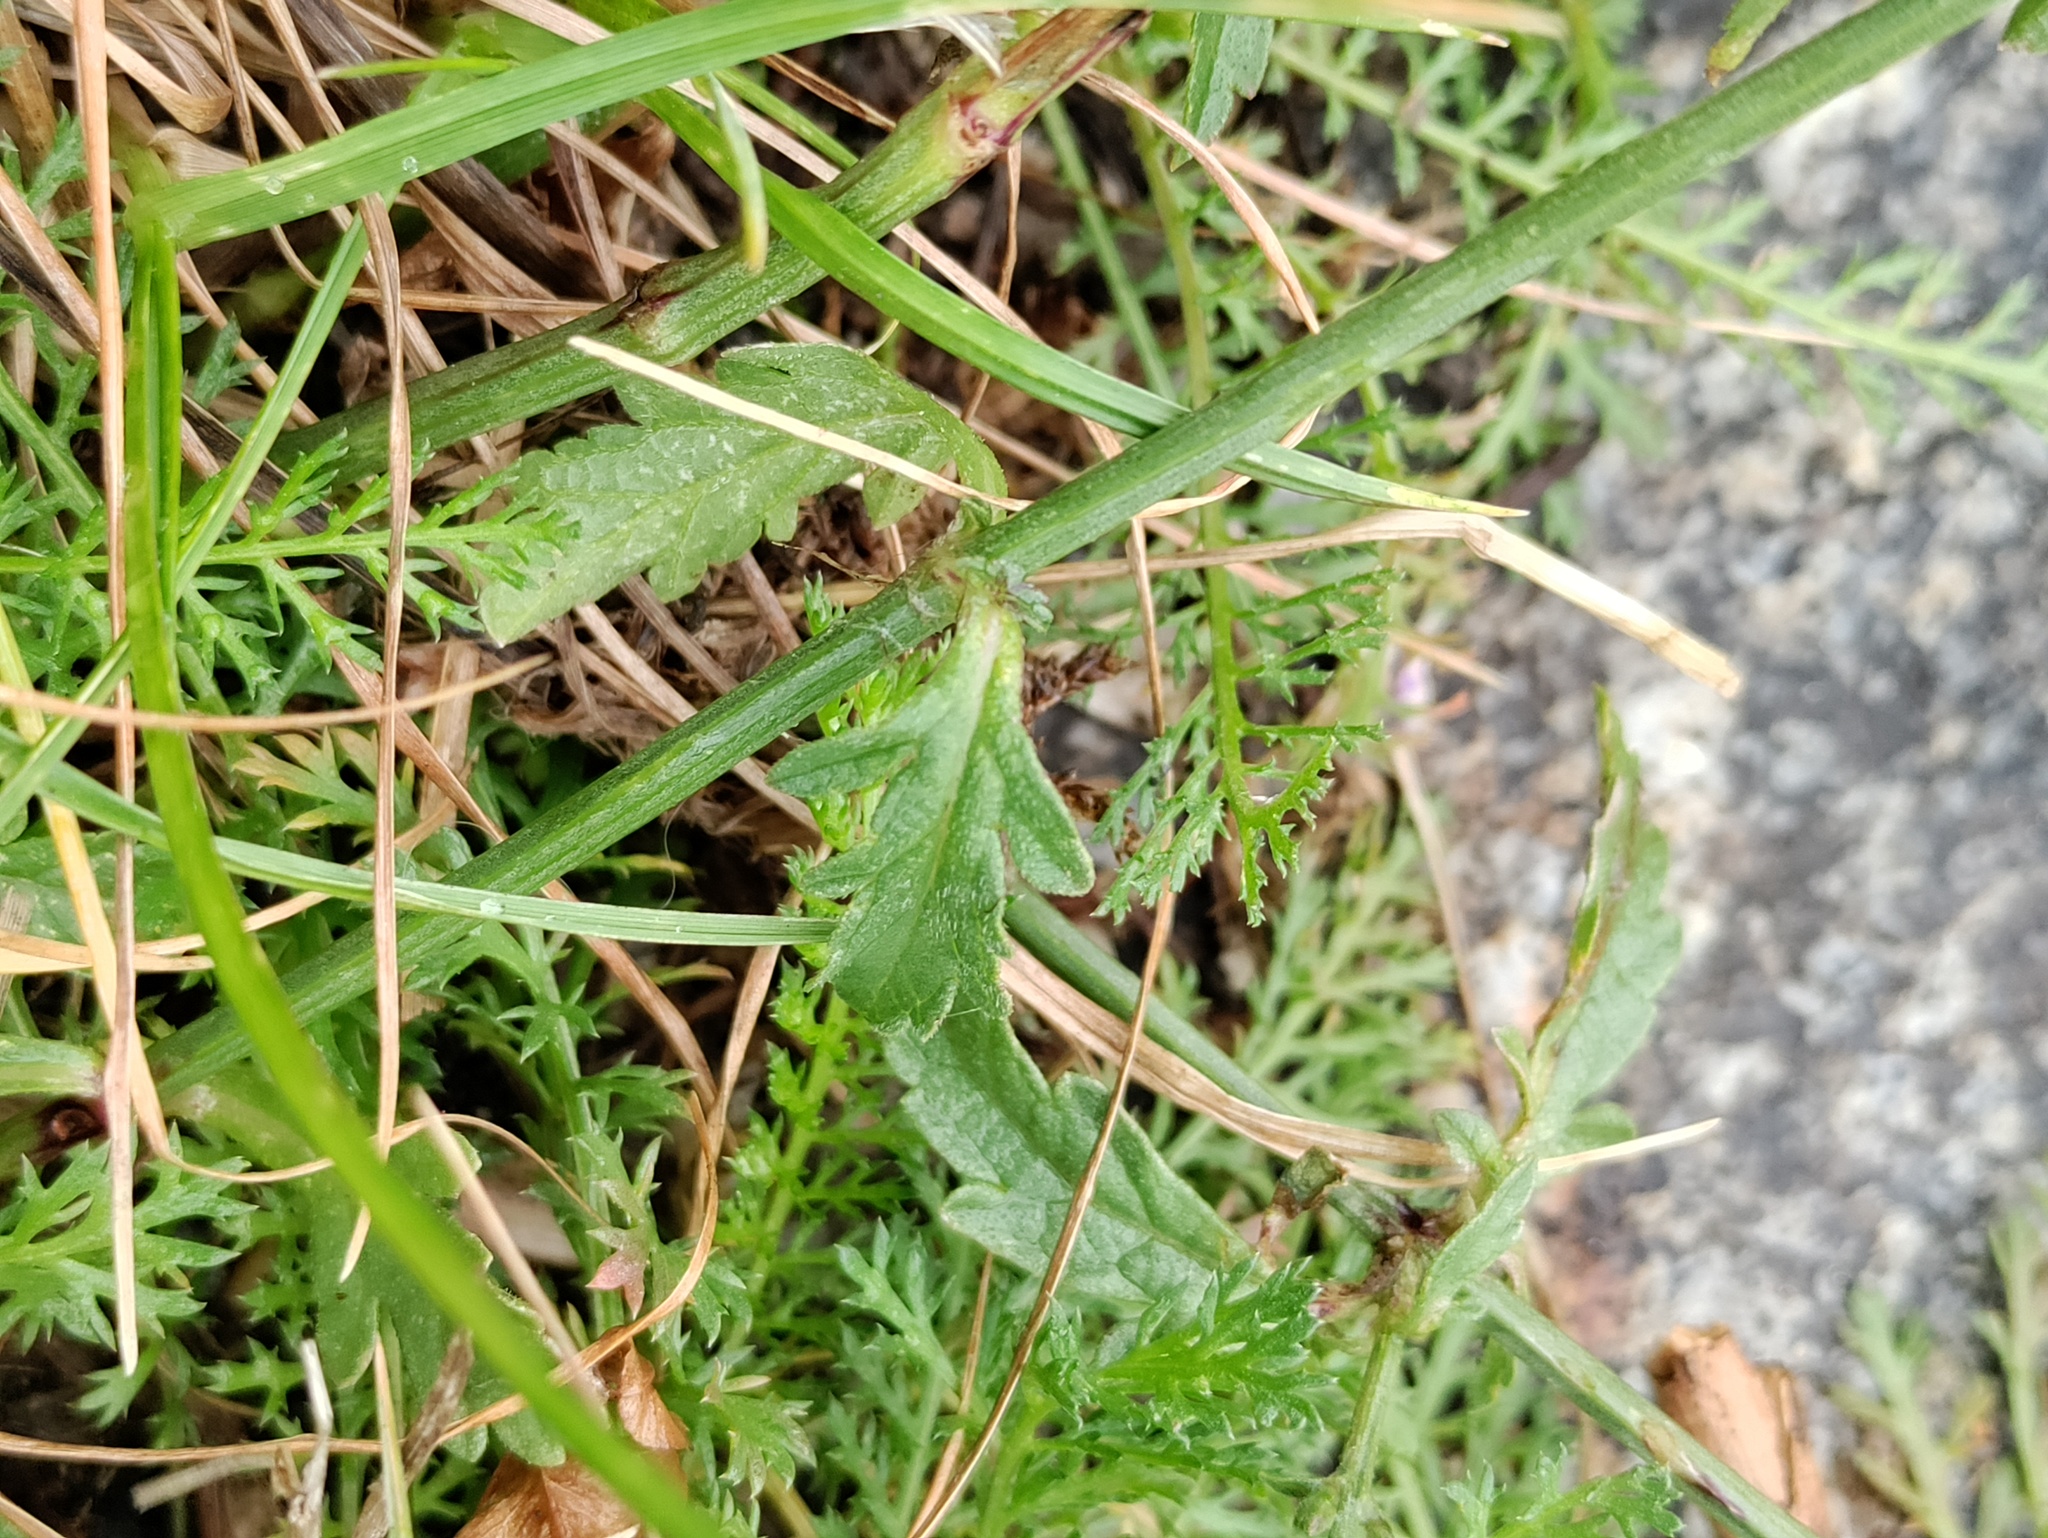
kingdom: Plantae
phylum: Tracheophyta
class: Magnoliopsida
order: Lamiales
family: Verbenaceae
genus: Verbena
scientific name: Verbena officinalis
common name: Vervain
